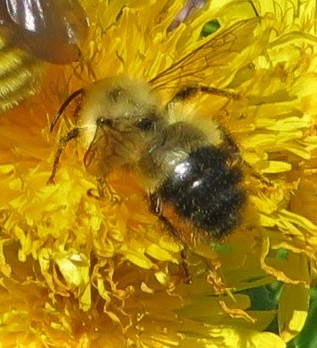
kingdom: Animalia
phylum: Arthropoda
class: Insecta
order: Hymenoptera
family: Apidae
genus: Pyrobombus
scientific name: Pyrobombus
